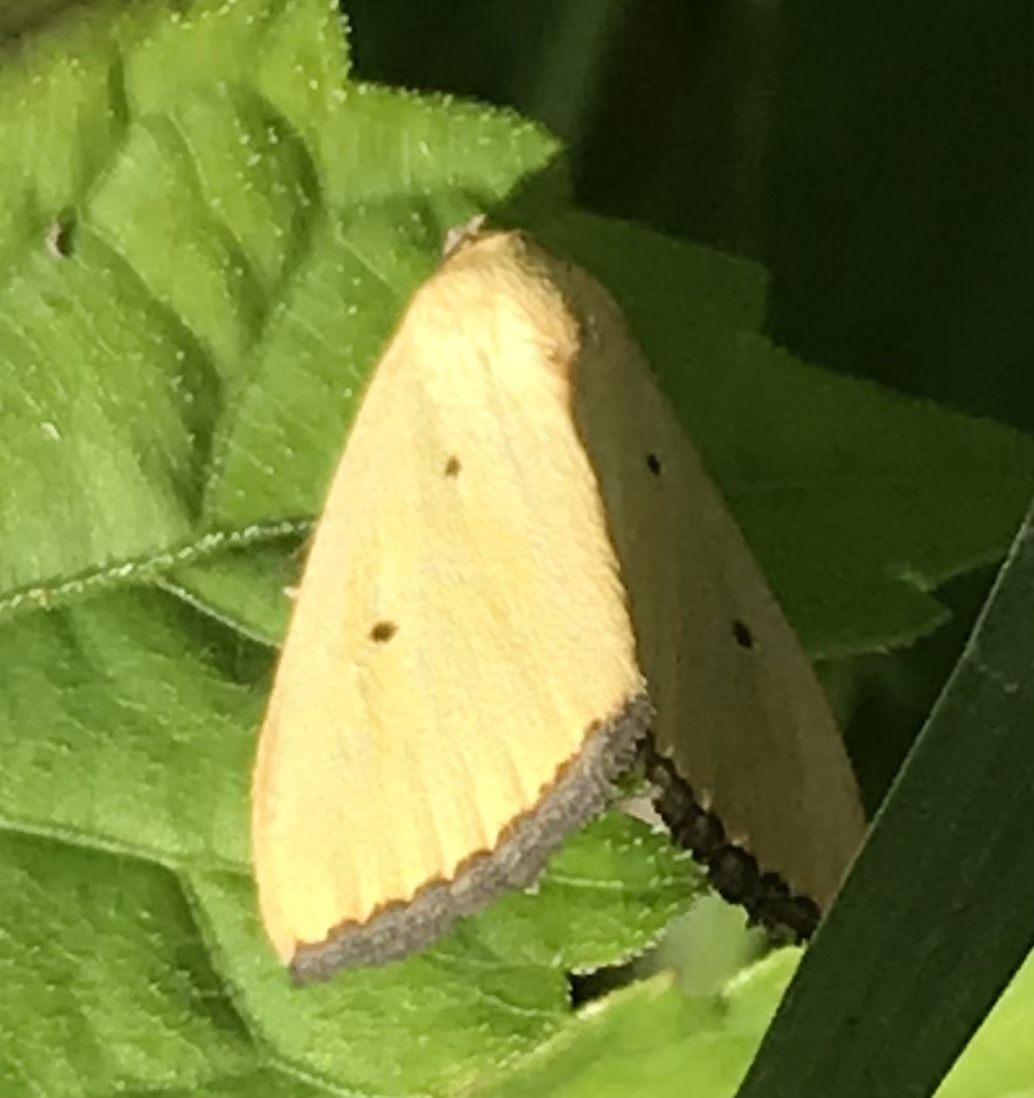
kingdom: Animalia
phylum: Arthropoda
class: Insecta
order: Lepidoptera
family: Noctuidae
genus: Marimatha
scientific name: Marimatha nigrofimbria
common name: Black-bordered lemon moth
